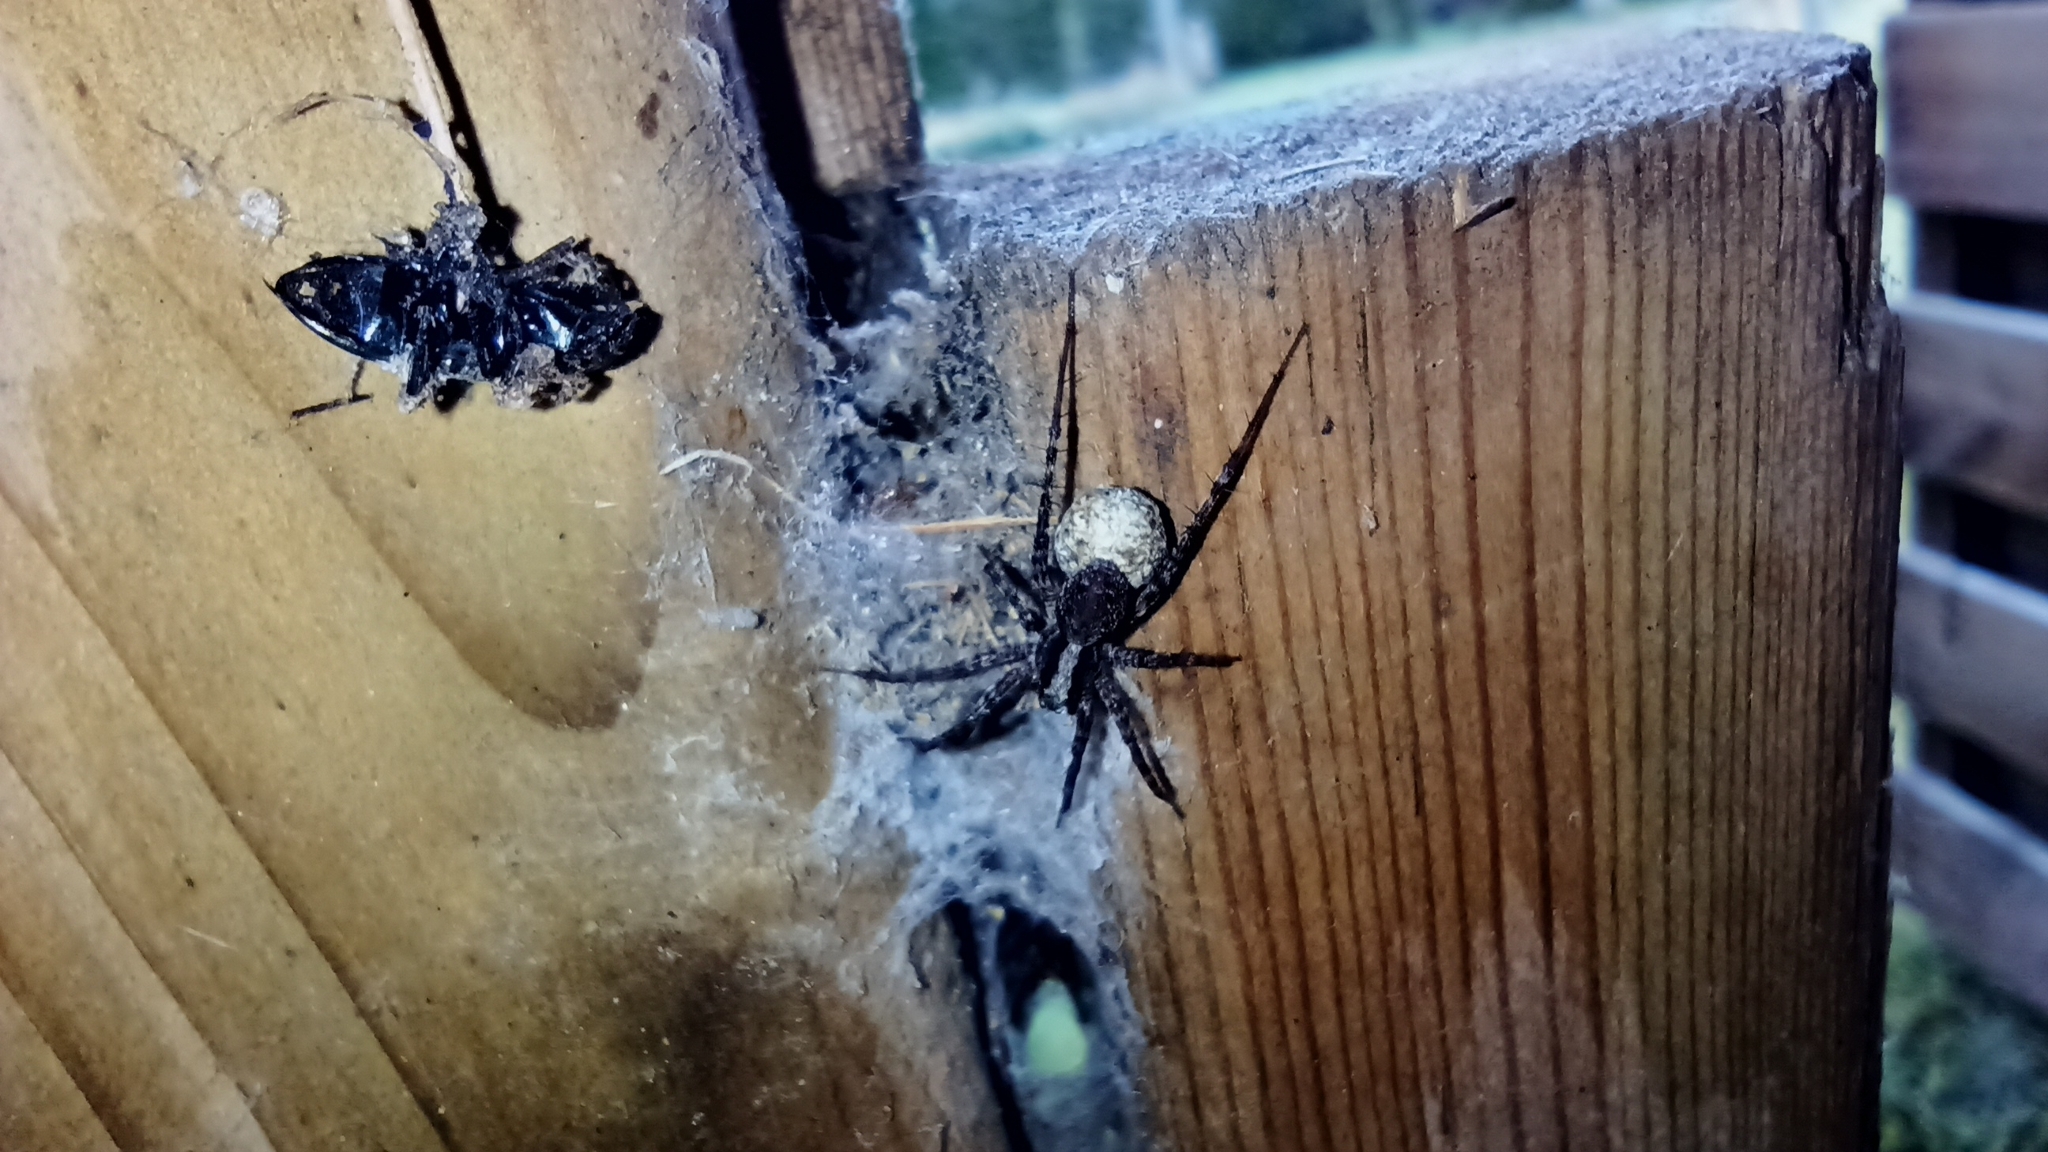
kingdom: Animalia
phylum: Arthropoda
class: Arachnida
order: Araneae
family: Lycosidae
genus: Pardosa
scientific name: Pardosa
